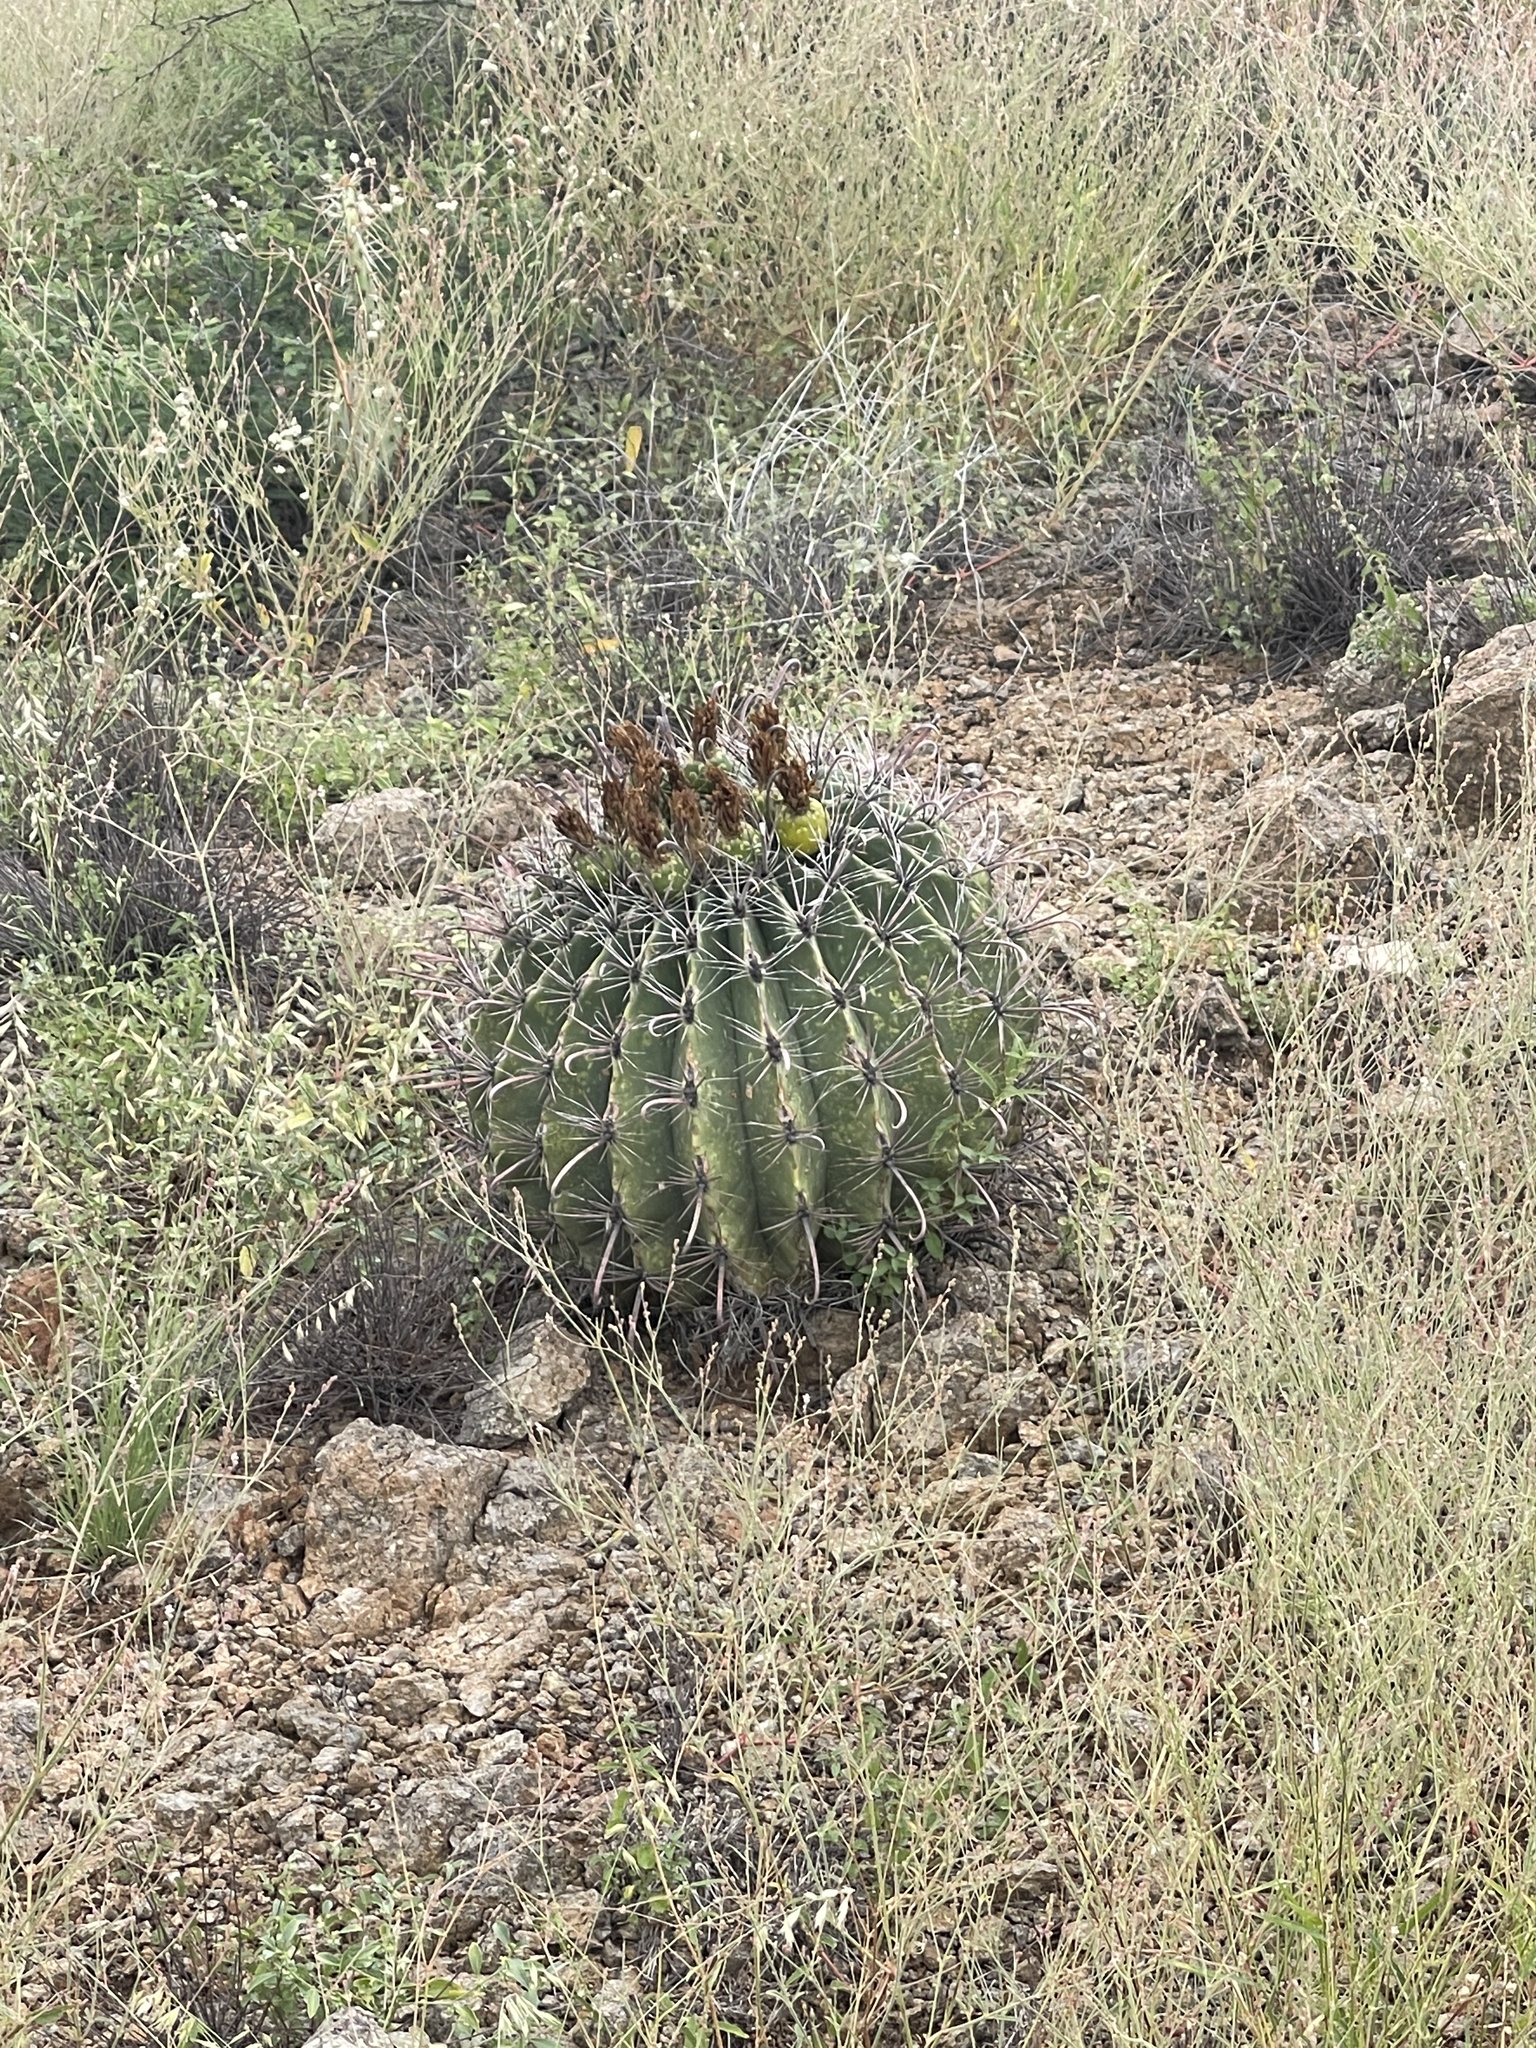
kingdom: Plantae
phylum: Tracheophyta
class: Magnoliopsida
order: Caryophyllales
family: Cactaceae
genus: Ferocactus
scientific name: Ferocactus wislizeni
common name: Candy barrel cactus
